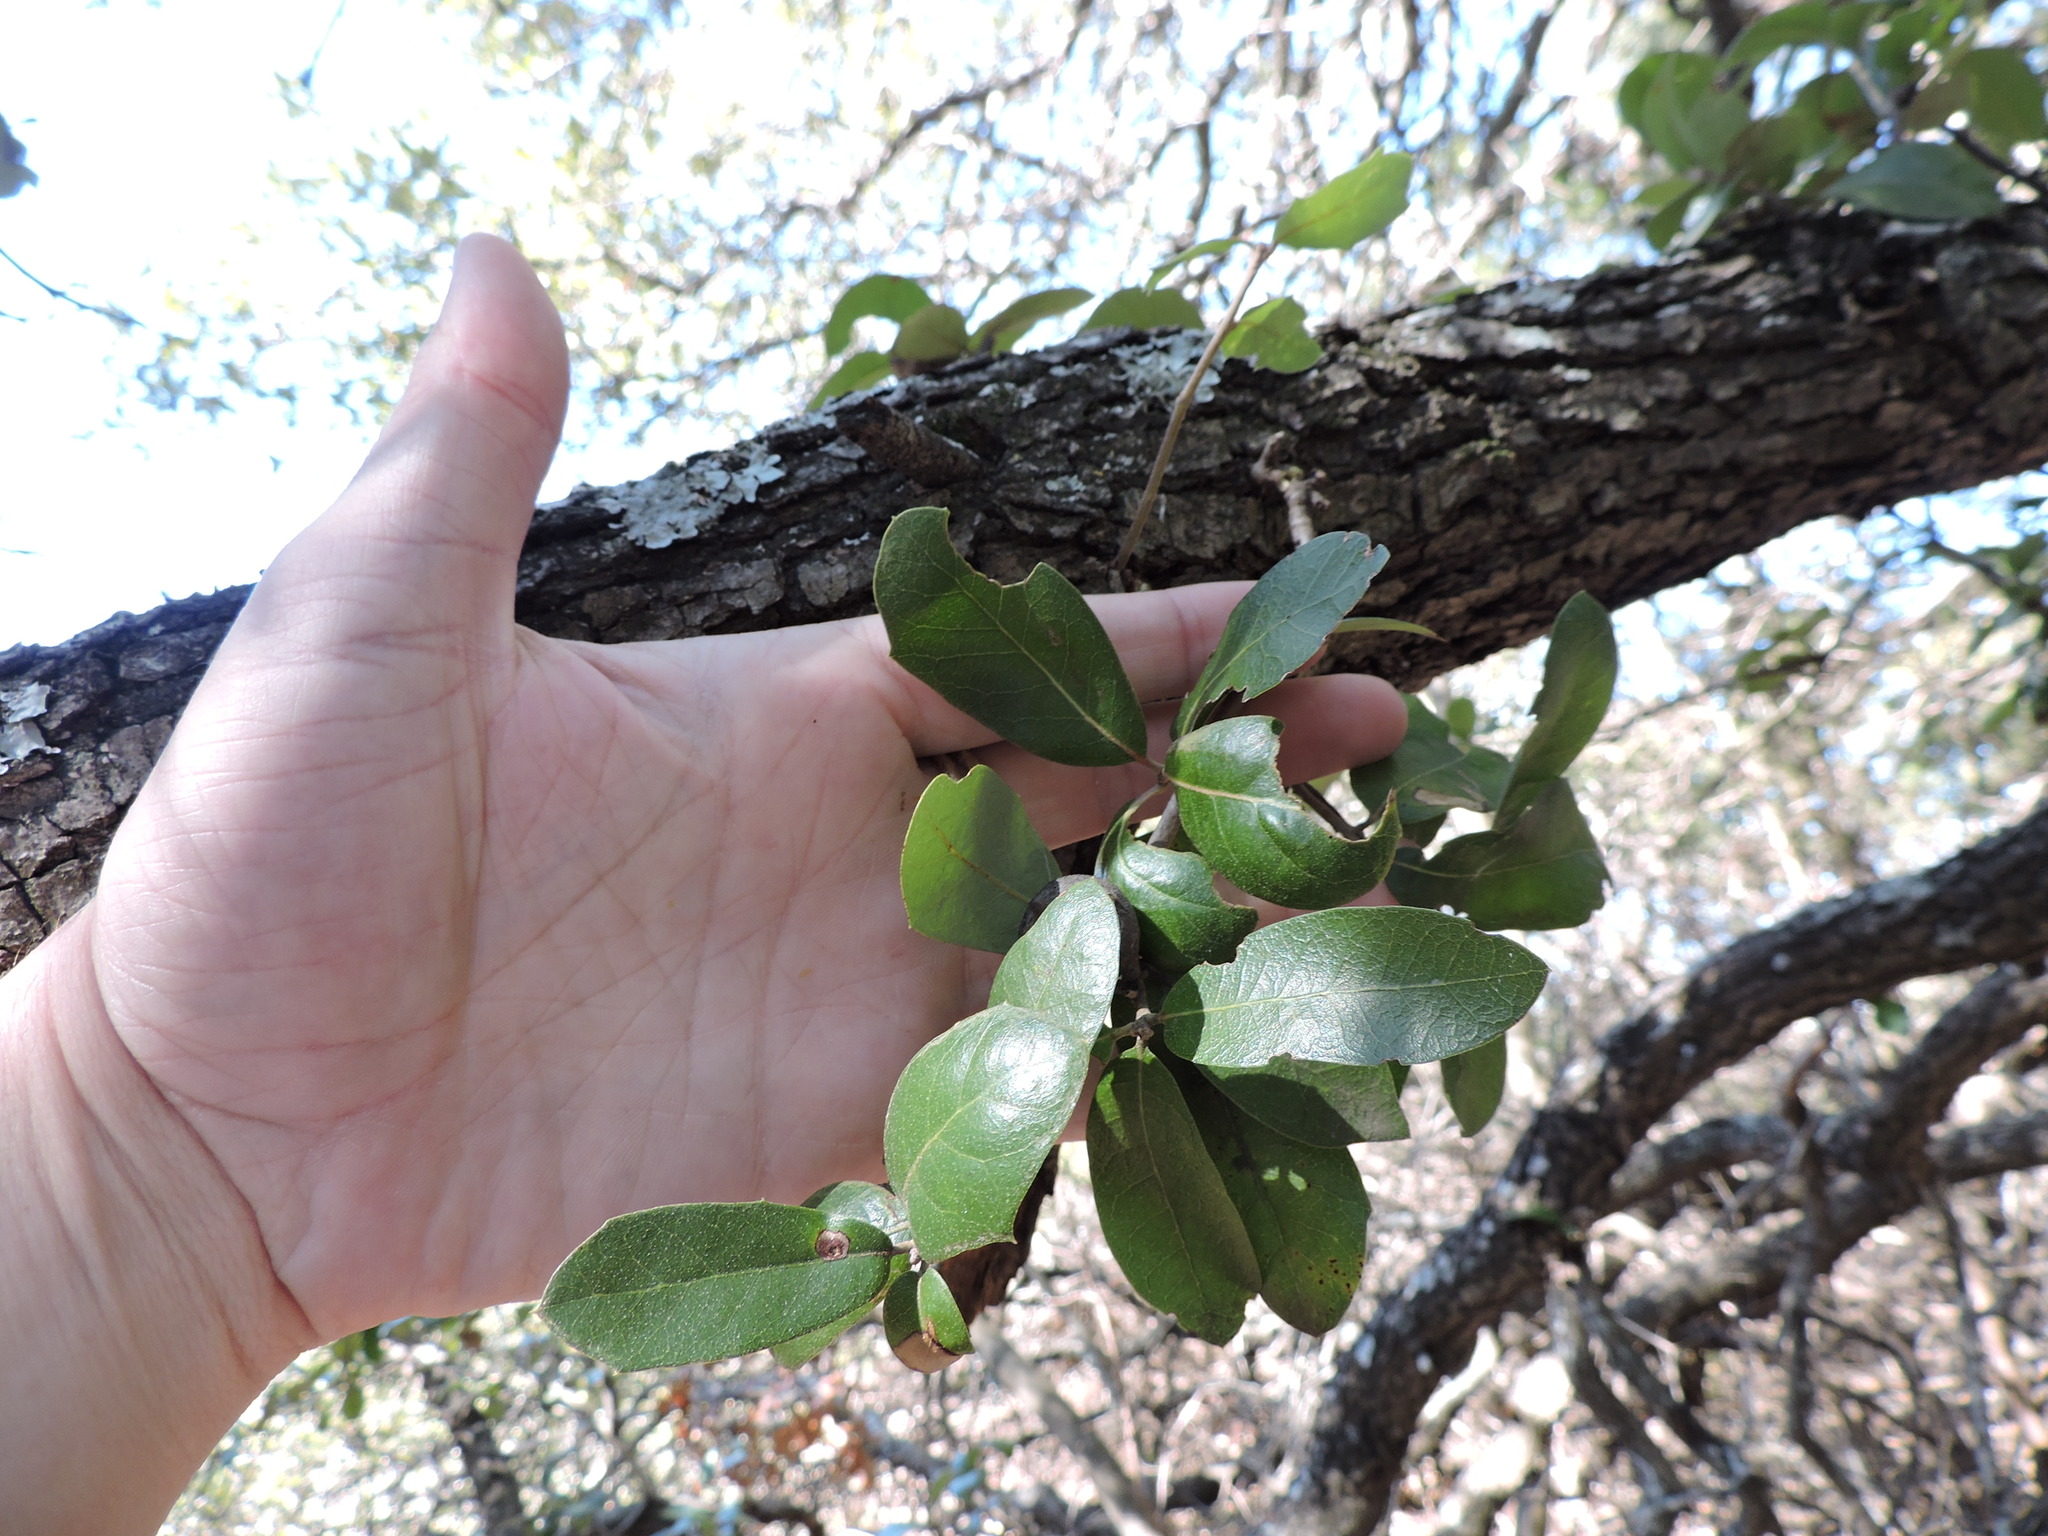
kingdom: Plantae
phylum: Tracheophyta
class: Magnoliopsida
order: Fagales
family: Fagaceae
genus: Quercus
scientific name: Quercus fusiformis
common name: Texas live oak
